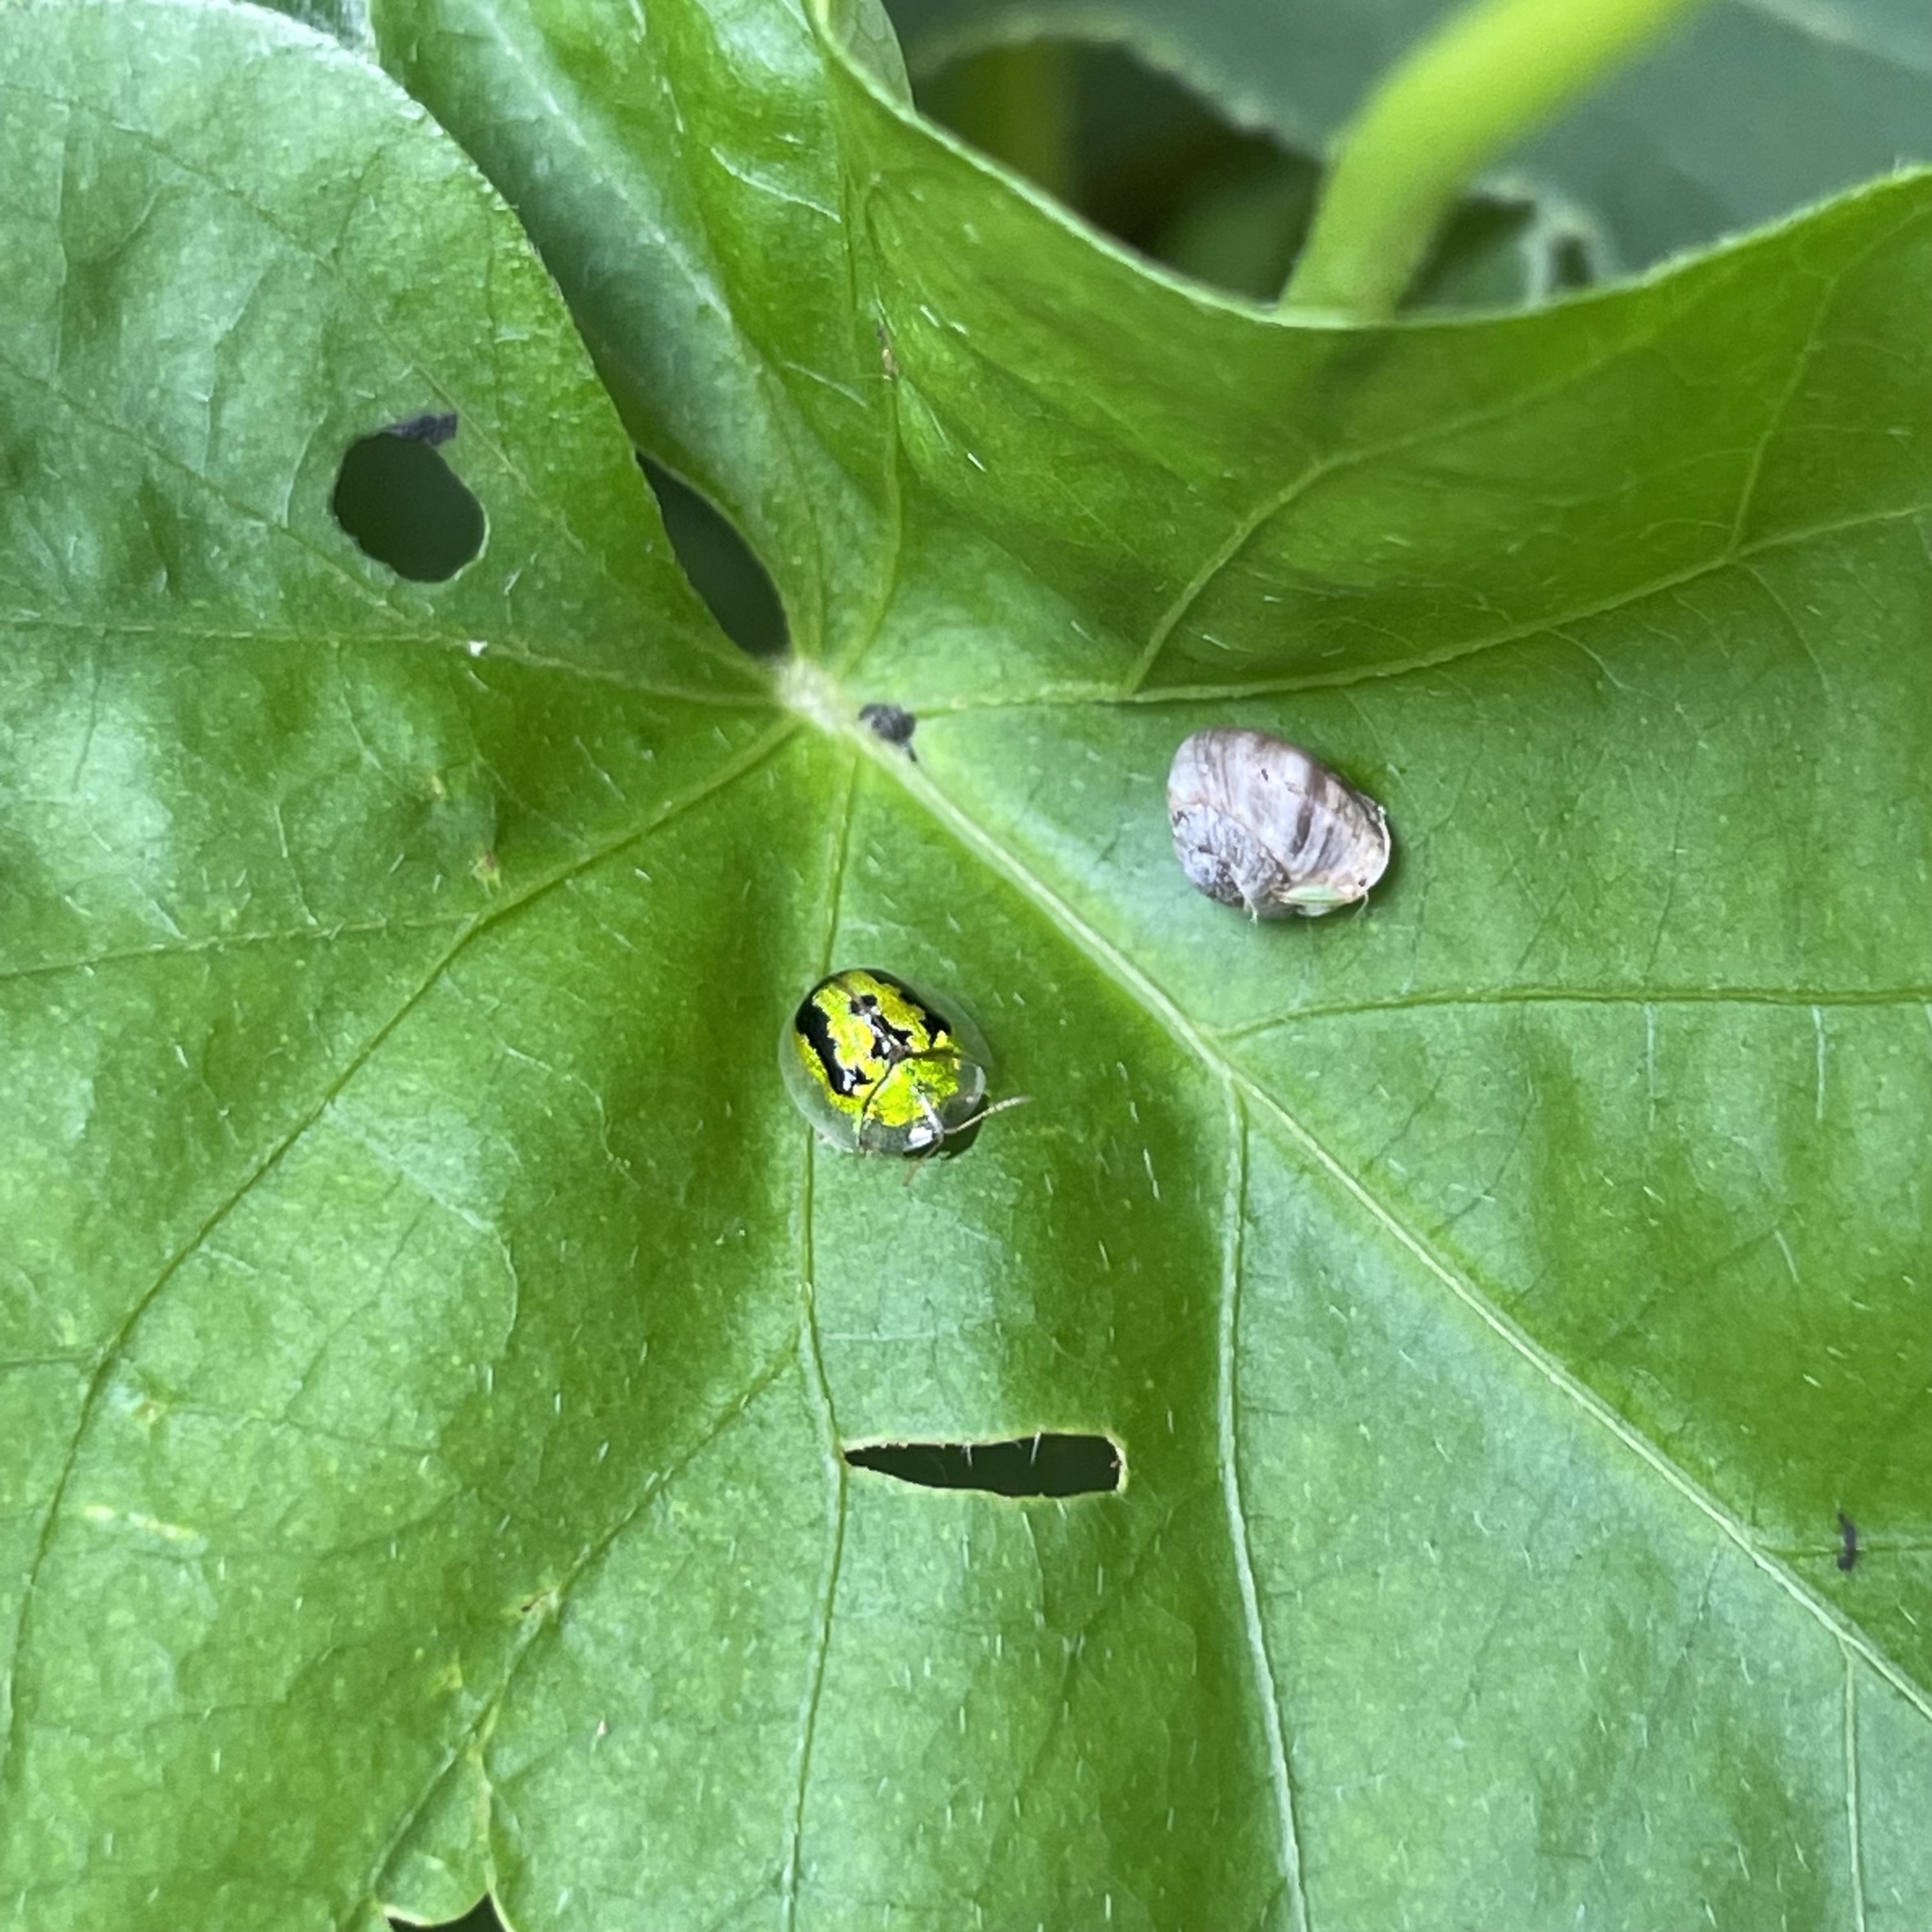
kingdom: Animalia
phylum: Arthropoda
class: Insecta
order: Coleoptera
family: Chrysomelidae
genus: Cassida
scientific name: Cassida circumdata
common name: Tortoise beetle
